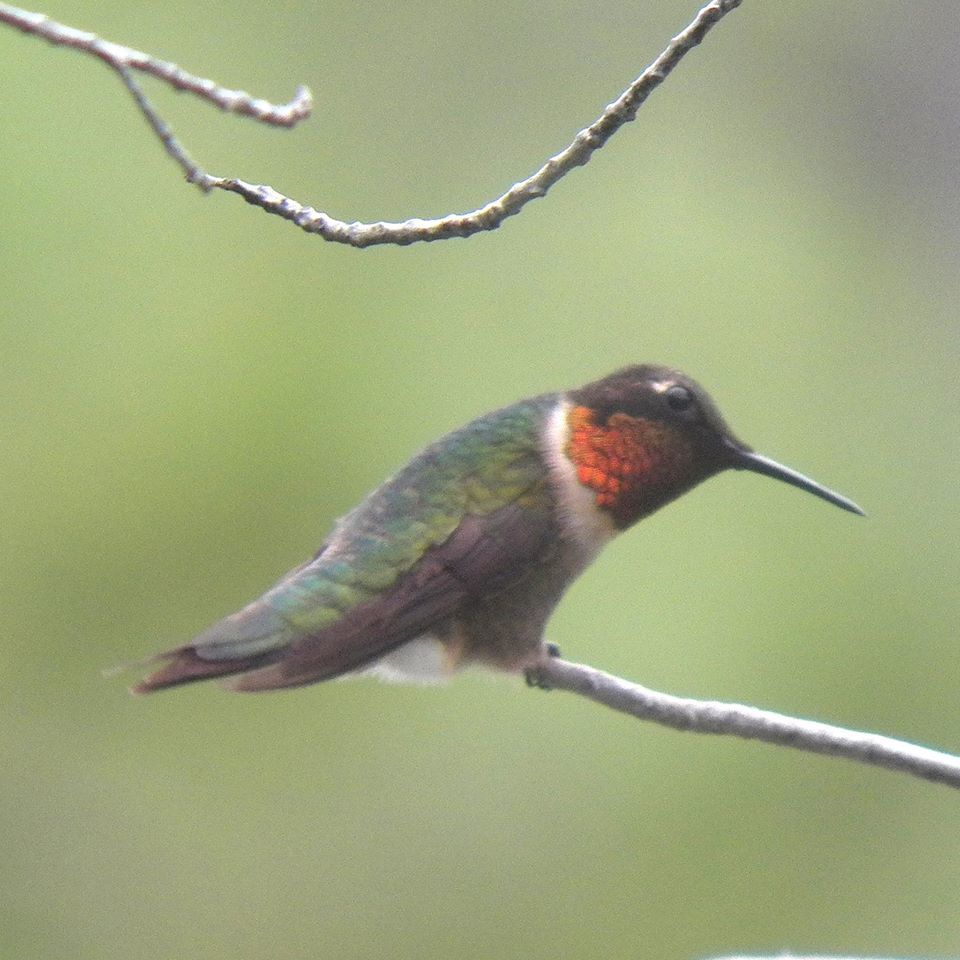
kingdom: Animalia
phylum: Chordata
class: Aves
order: Apodiformes
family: Trochilidae
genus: Archilochus
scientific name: Archilochus colubris
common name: Ruby-throated hummingbird
